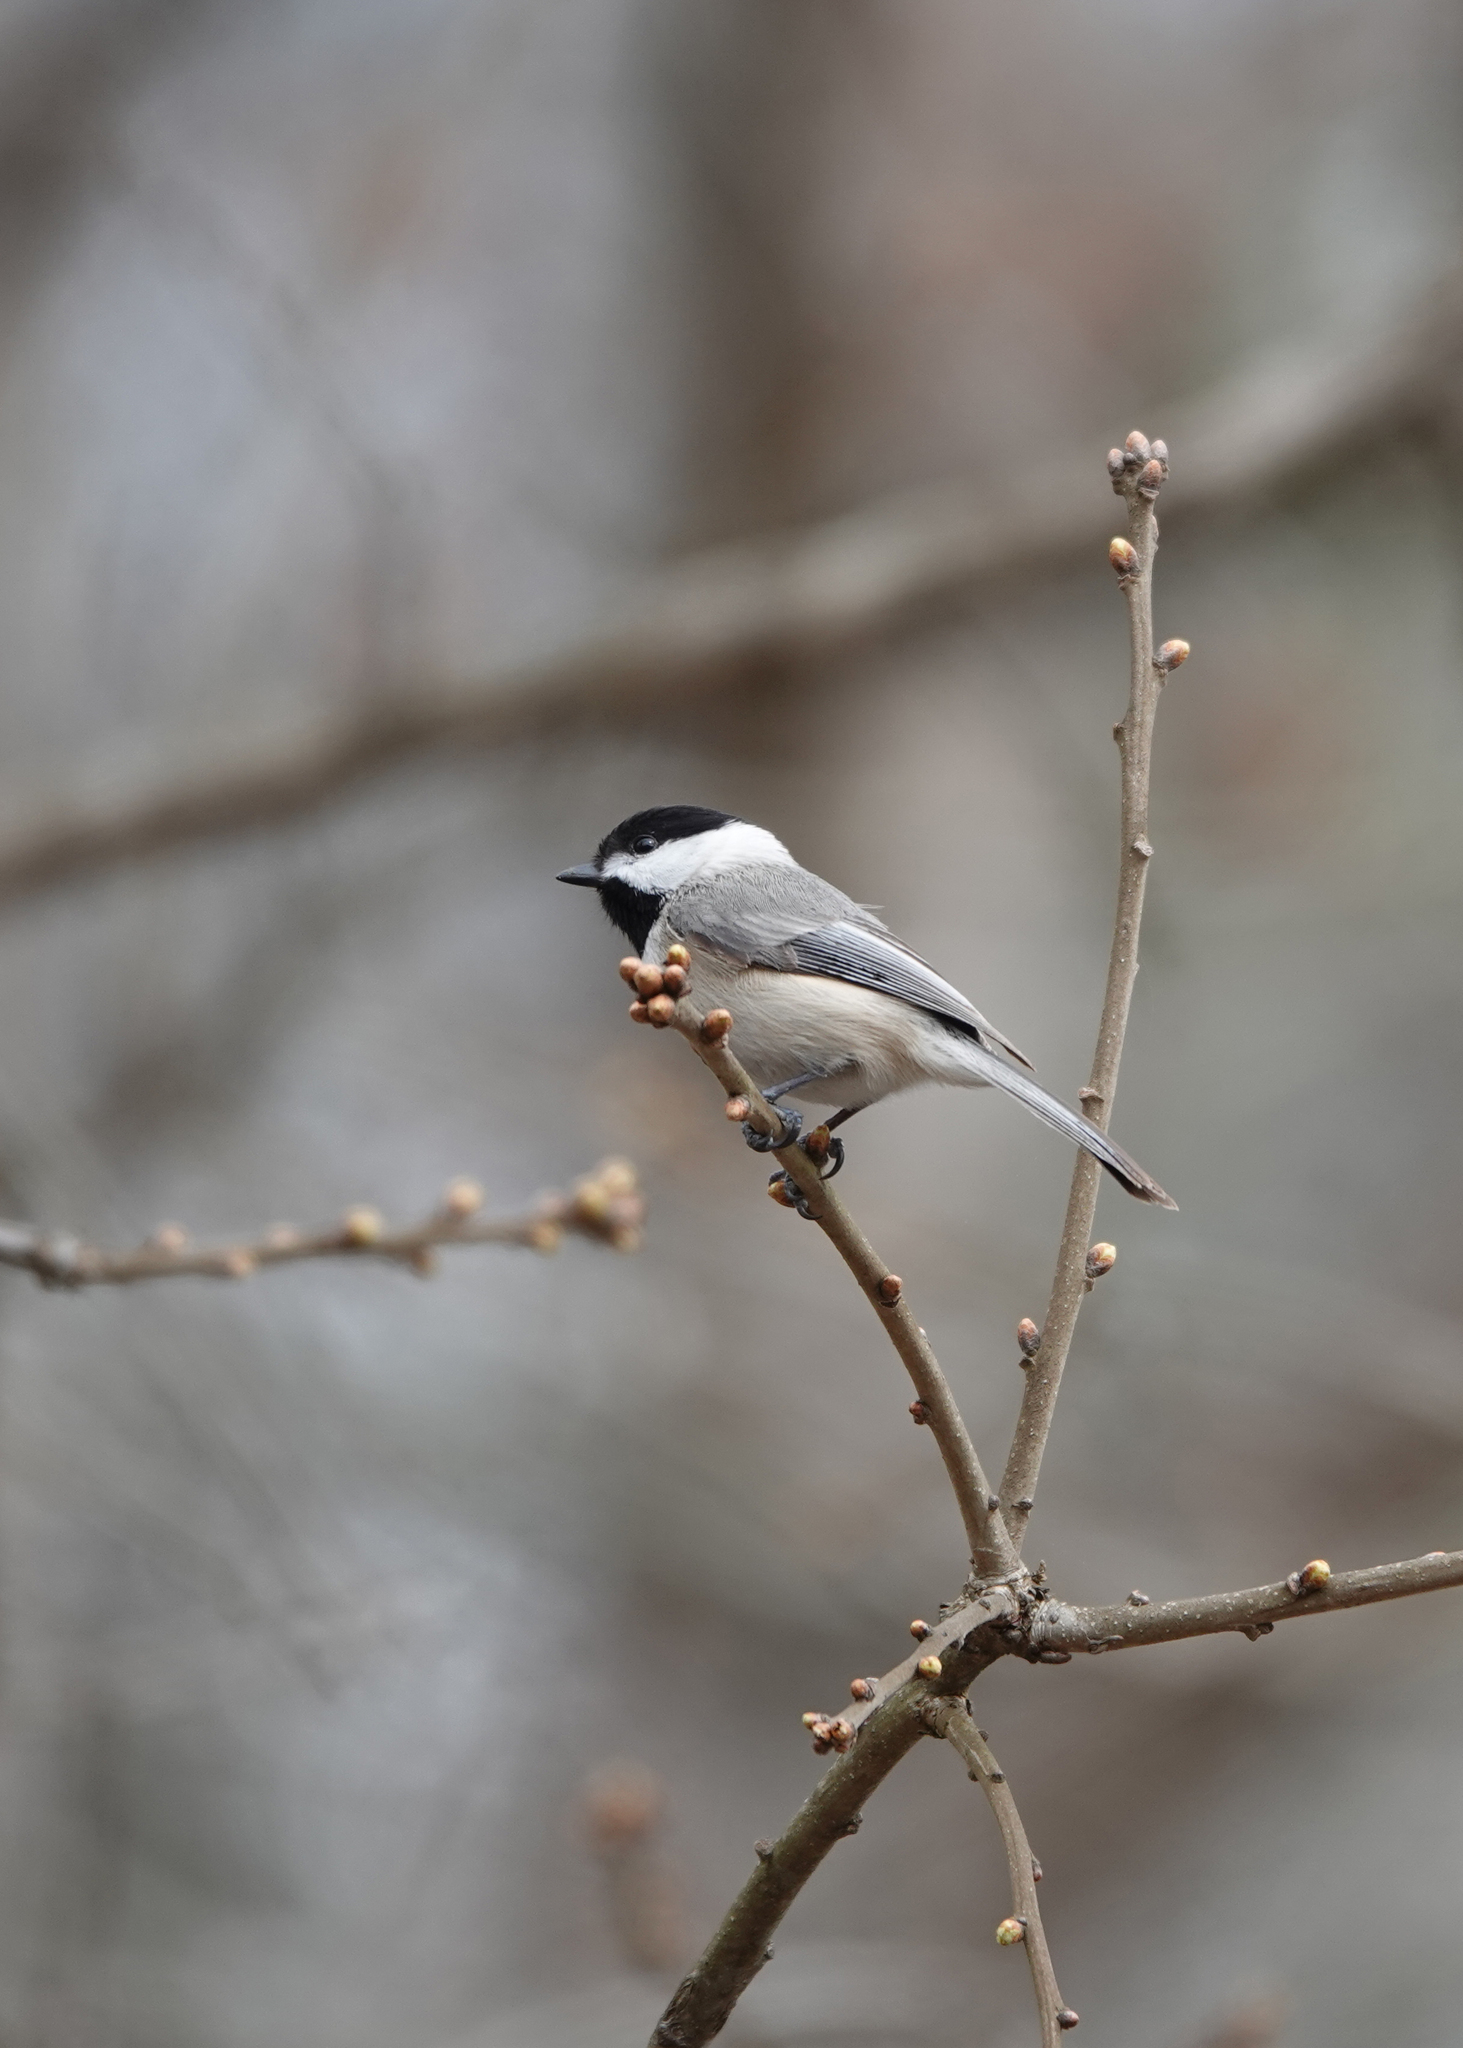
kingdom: Animalia
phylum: Chordata
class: Aves
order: Passeriformes
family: Paridae
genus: Poecile
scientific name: Poecile carolinensis
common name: Carolina chickadee
